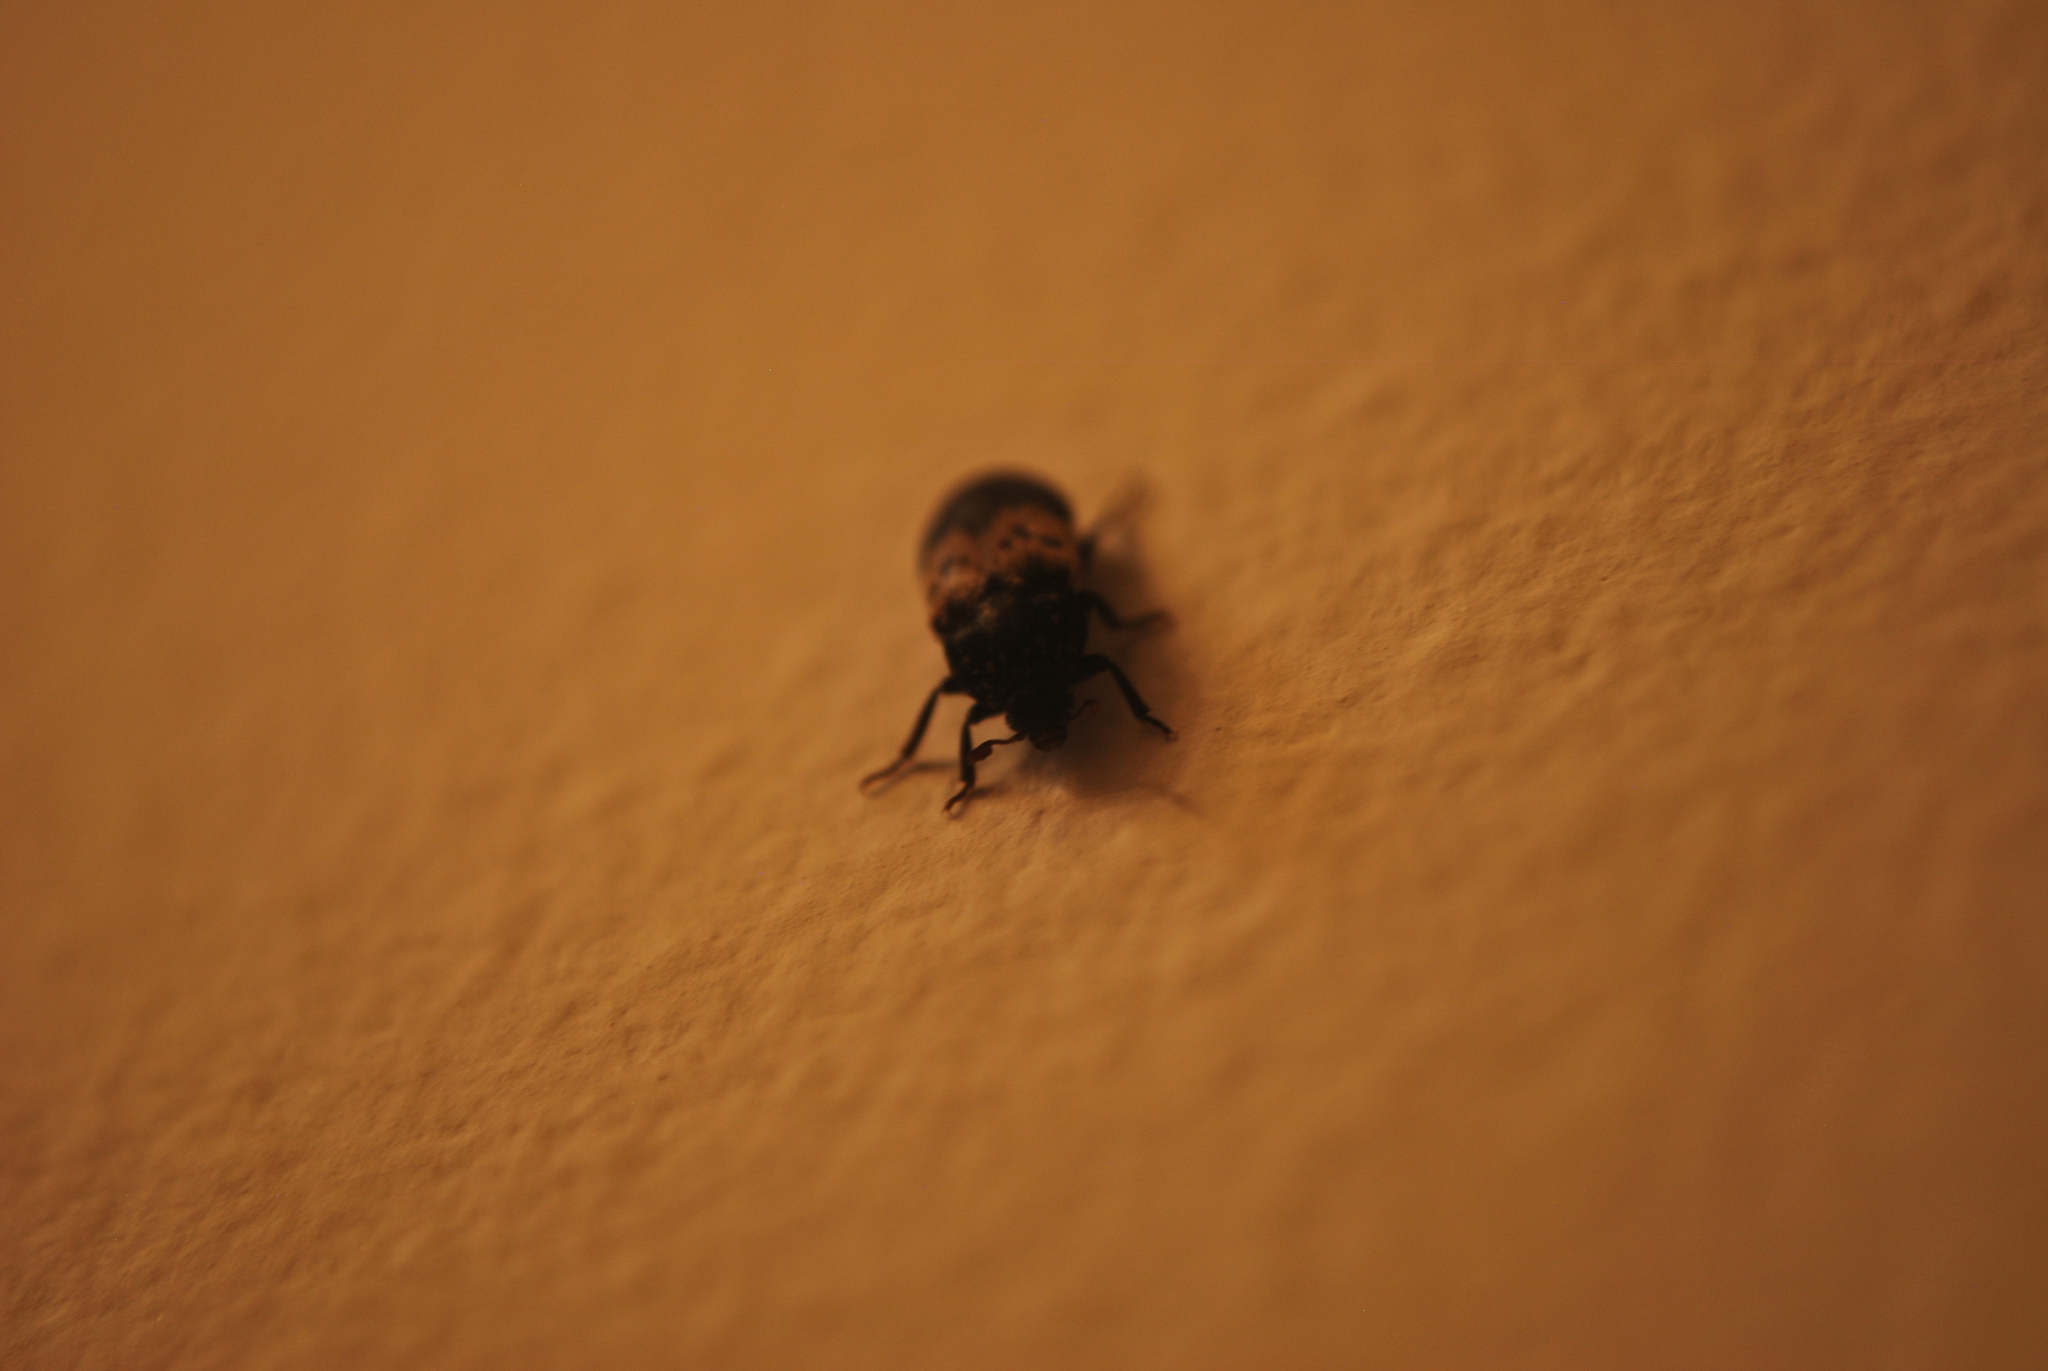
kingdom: Animalia
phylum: Arthropoda
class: Insecta
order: Coleoptera
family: Dermestidae
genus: Dermestes
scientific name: Dermestes lardarius
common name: Larder beetle
